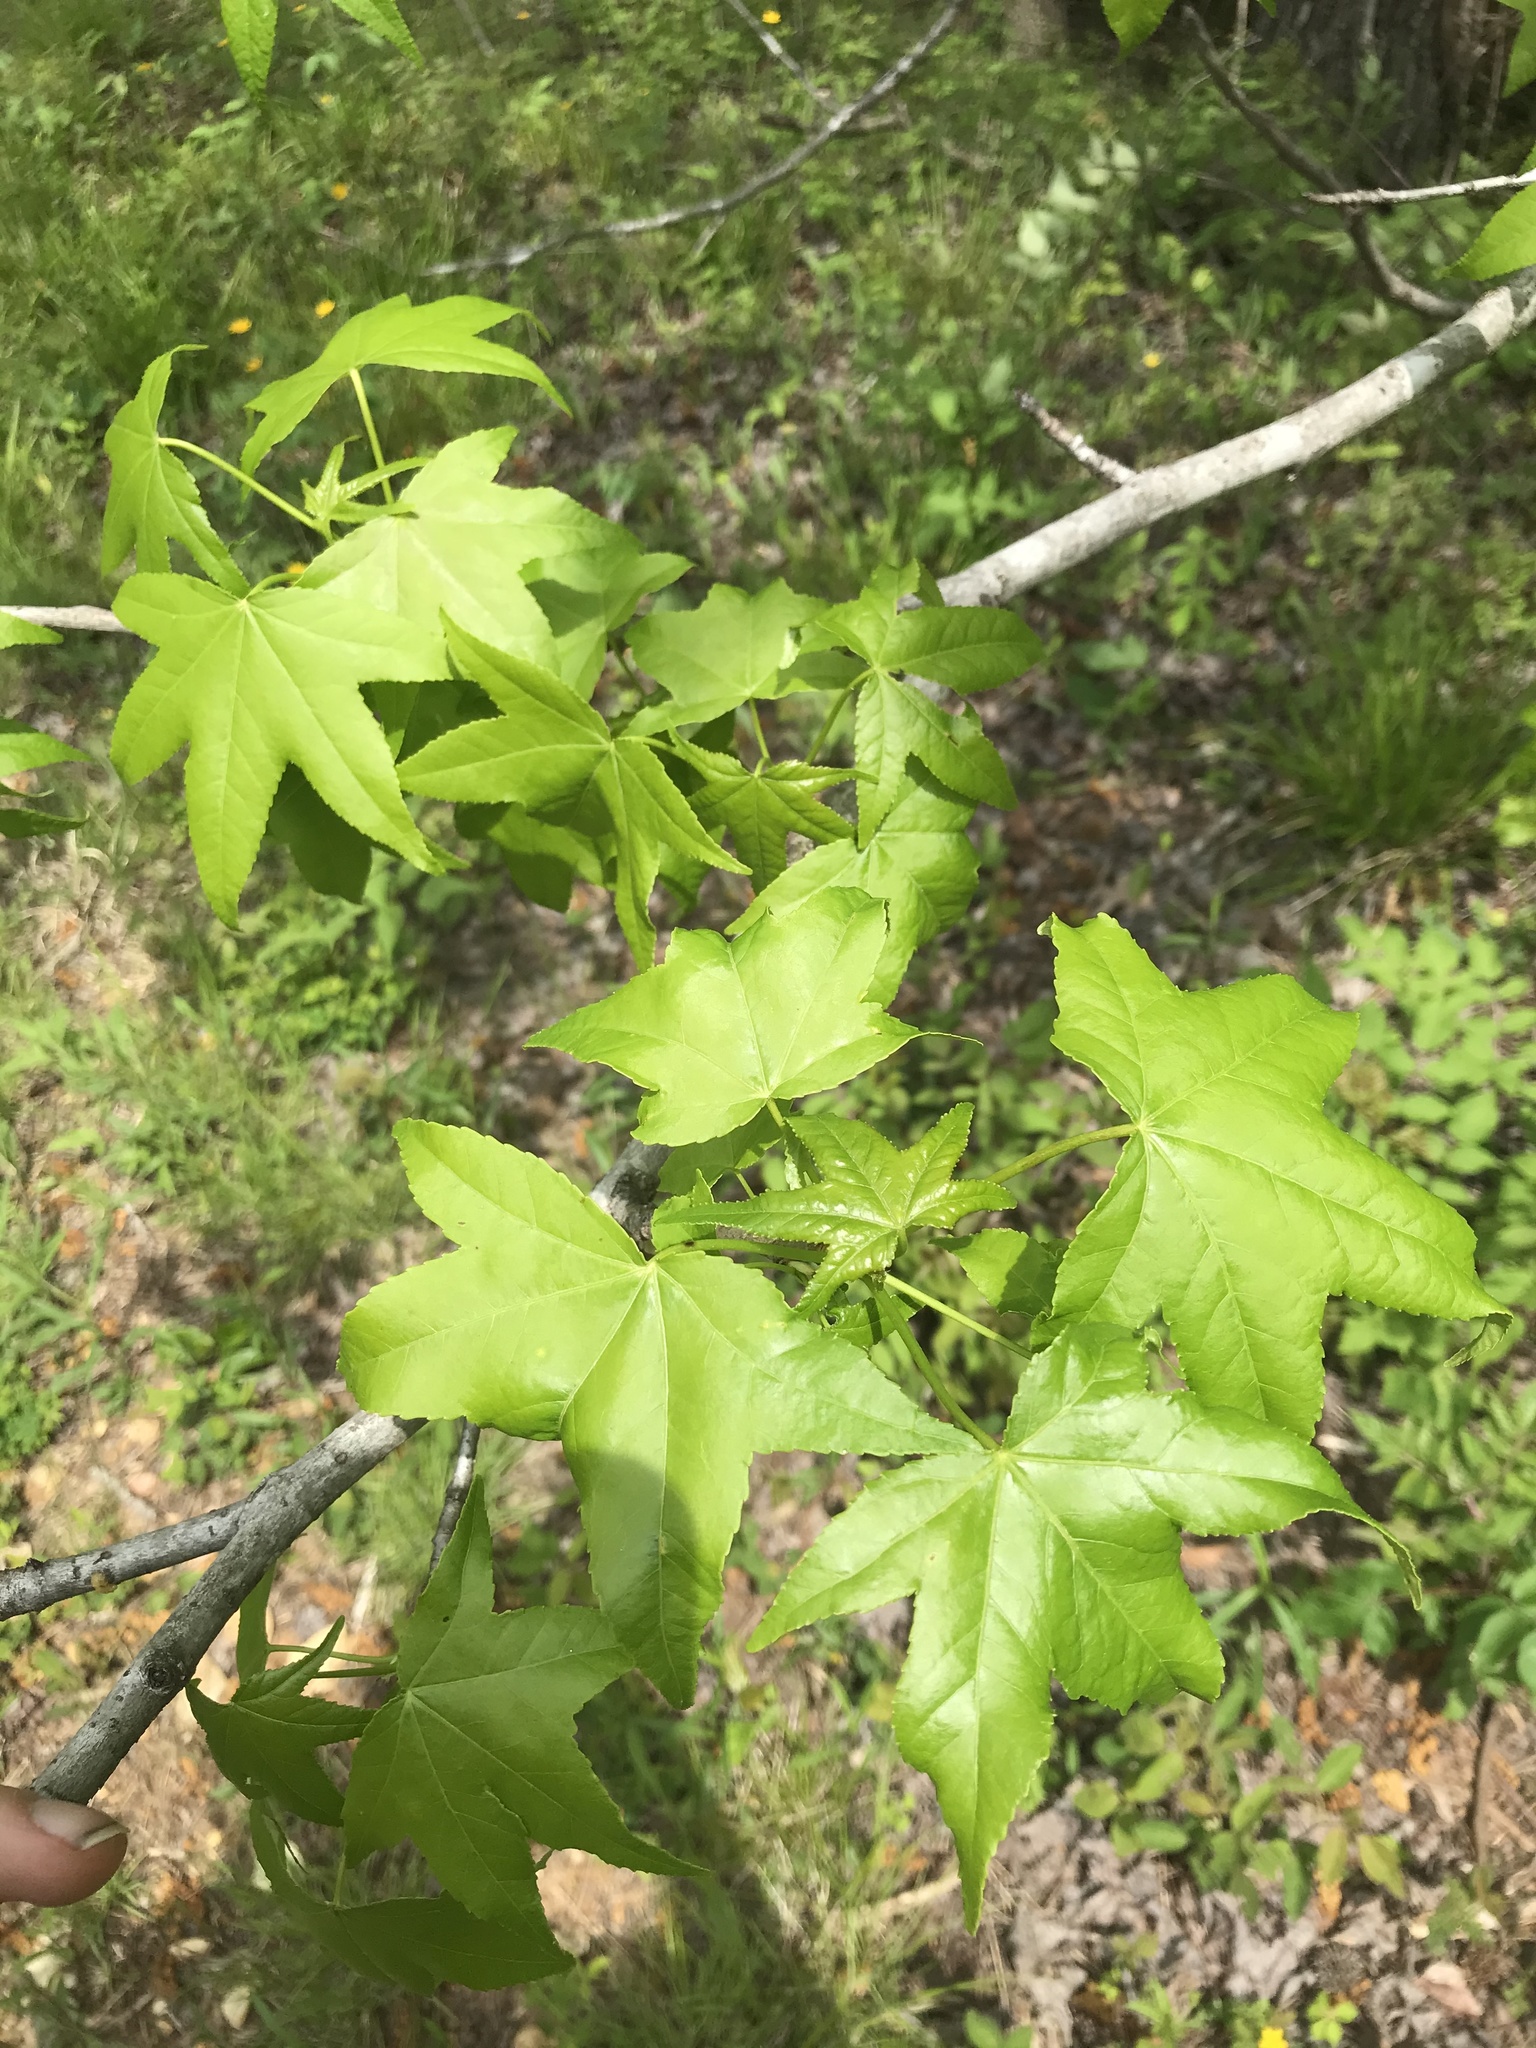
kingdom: Plantae
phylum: Tracheophyta
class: Magnoliopsida
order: Saxifragales
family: Altingiaceae
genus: Liquidambar
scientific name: Liquidambar styraciflua
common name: Sweet gum
